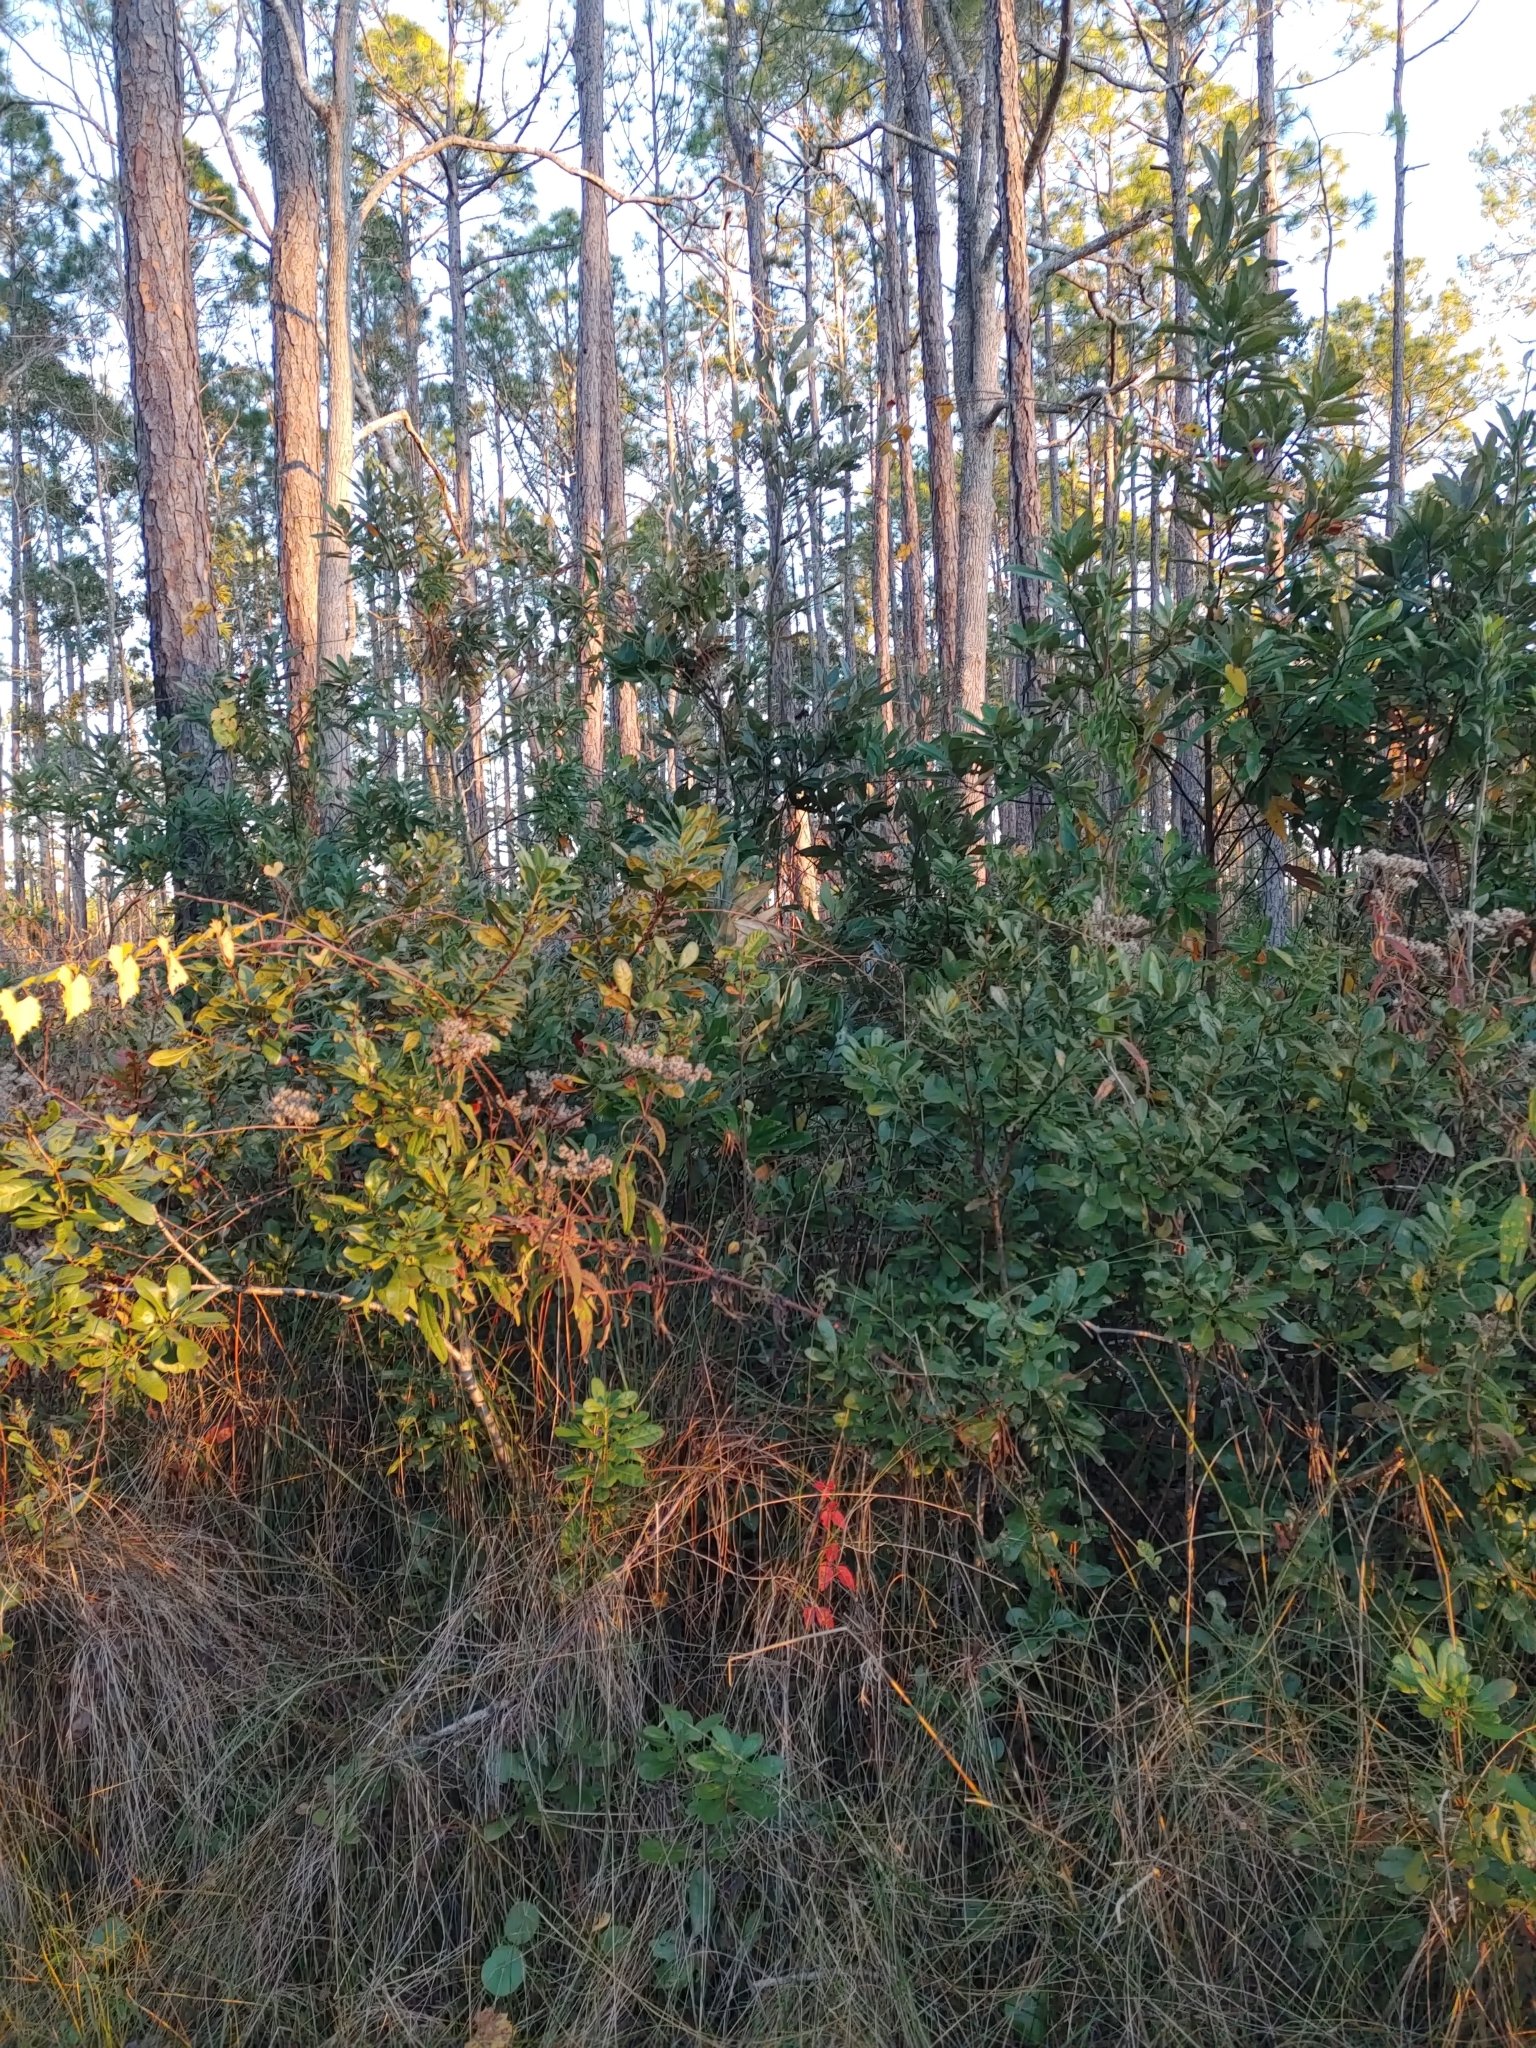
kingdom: Plantae
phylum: Tracheophyta
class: Magnoliopsida
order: Fagales
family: Myricaceae
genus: Morella
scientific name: Morella caroliniensis
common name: Evergreen bayberry
